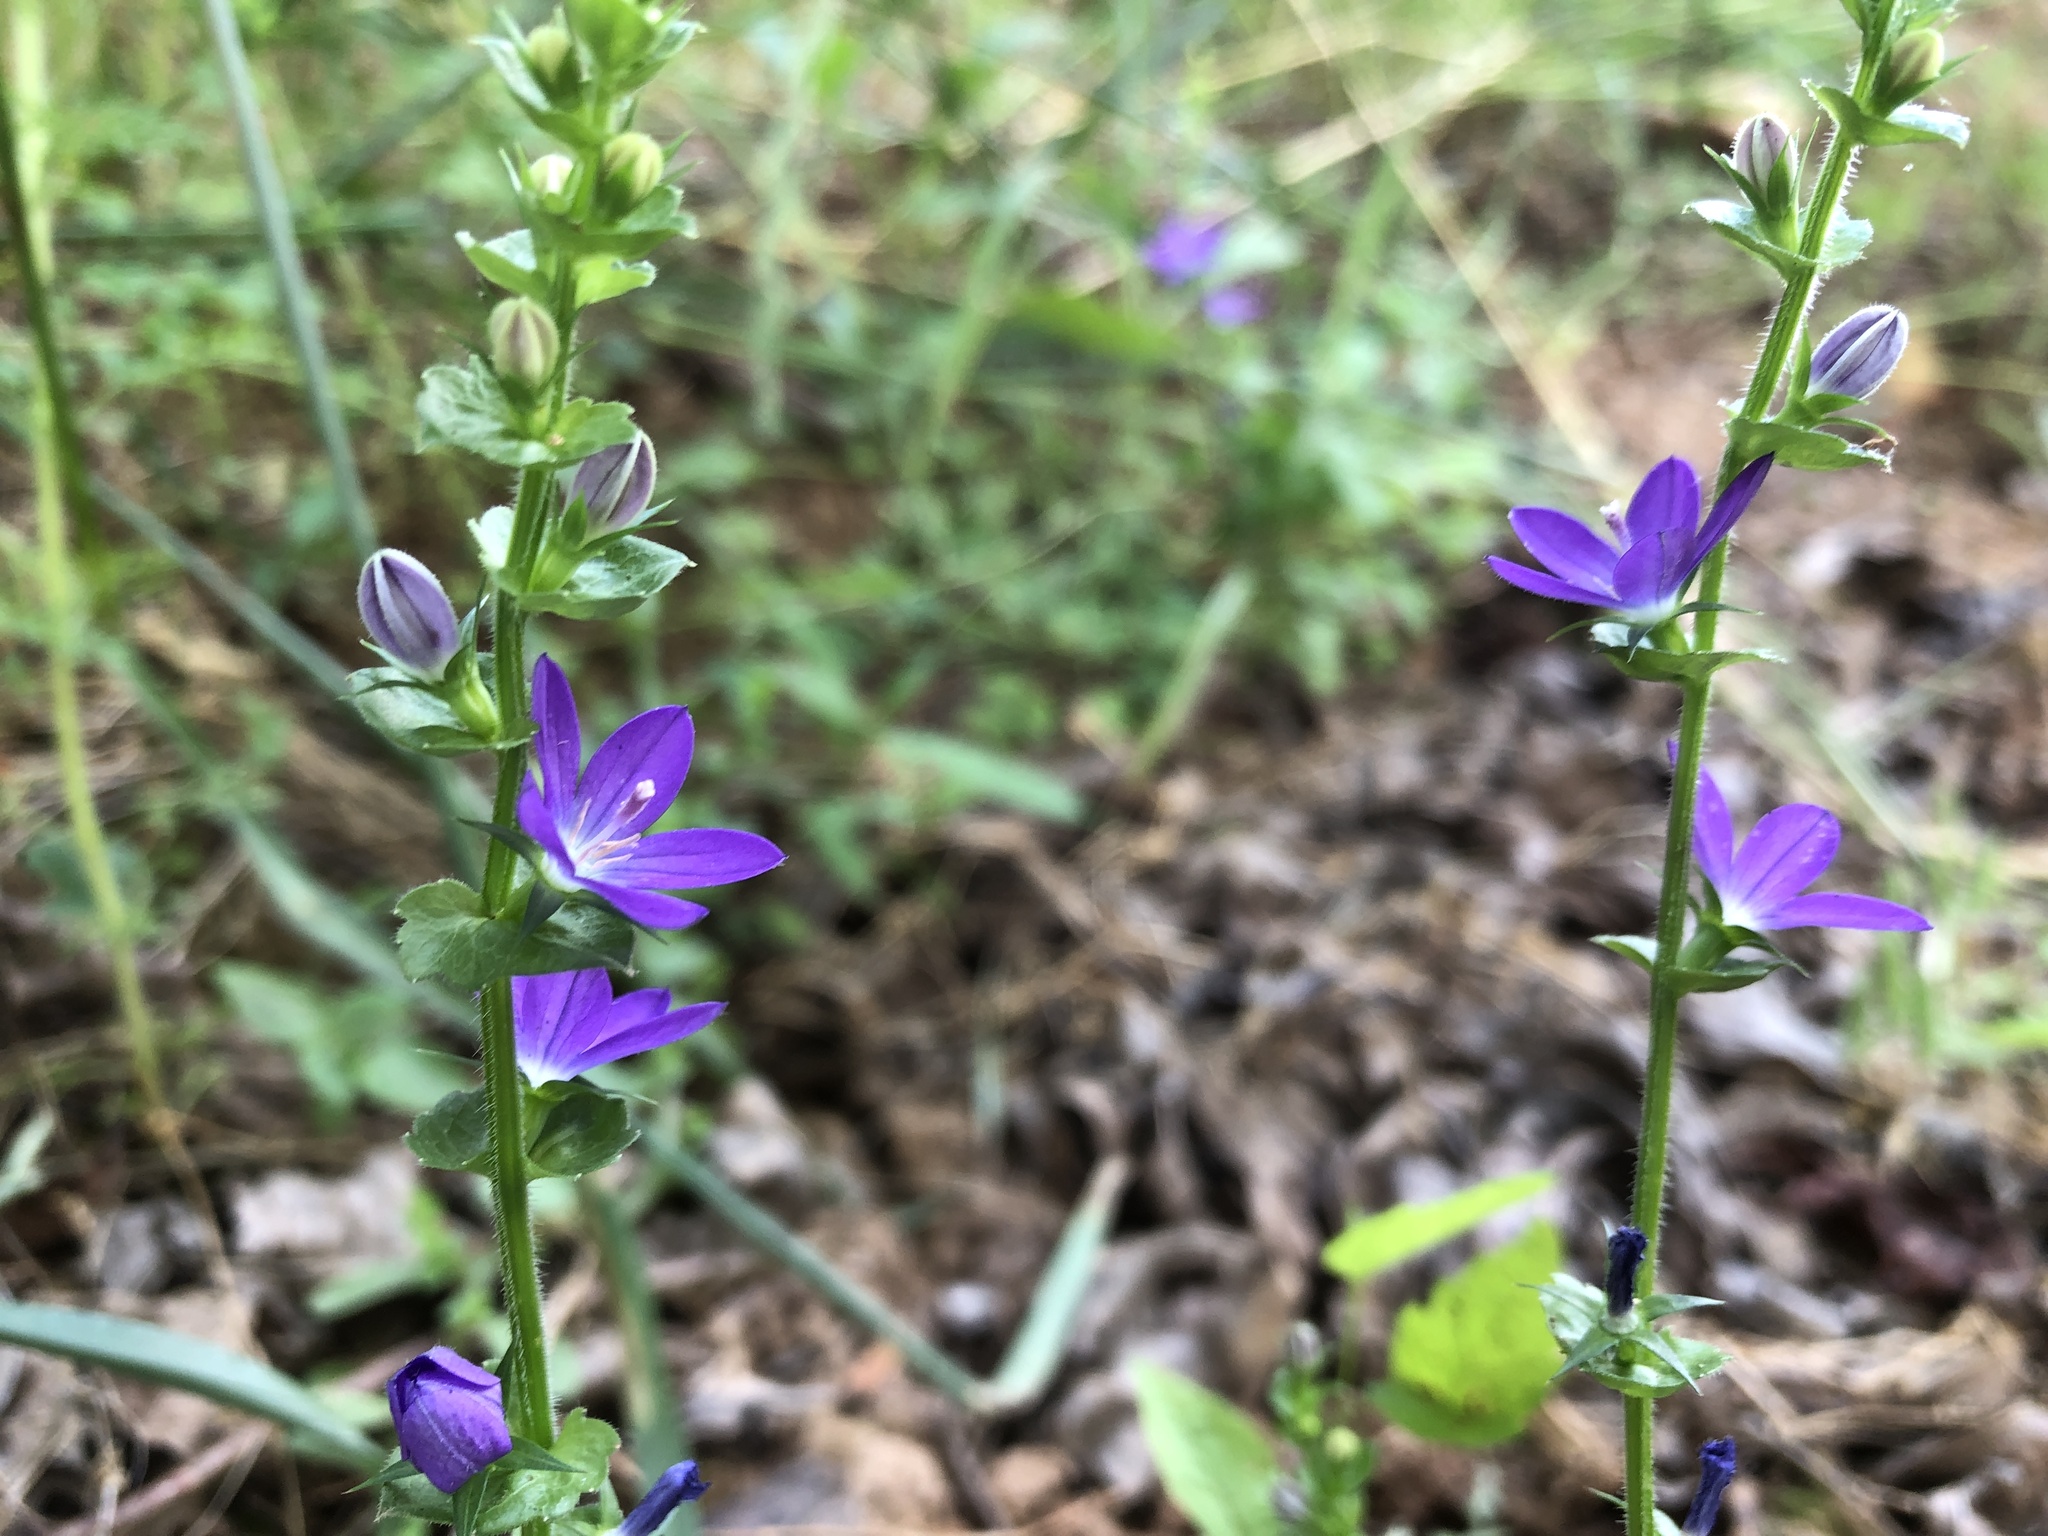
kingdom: Plantae
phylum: Tracheophyta
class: Magnoliopsida
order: Asterales
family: Campanulaceae
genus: Triodanis
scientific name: Triodanis perfoliata
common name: Clasping venus' looking-glass
